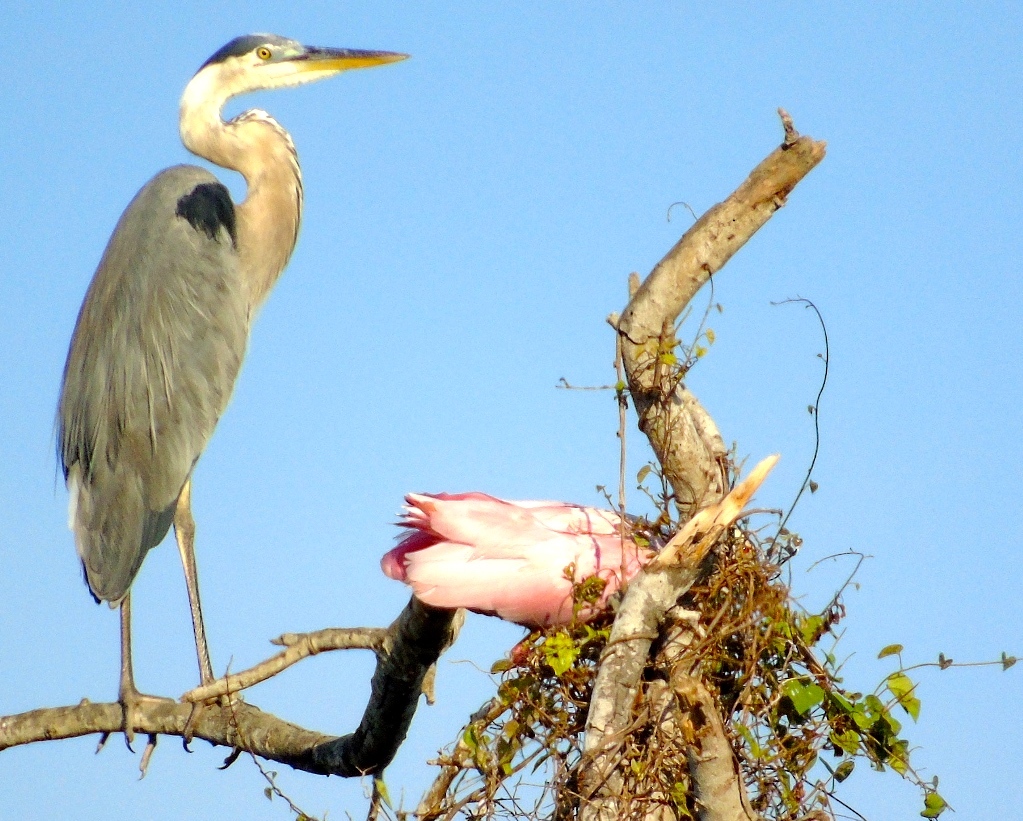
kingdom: Animalia
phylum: Chordata
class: Aves
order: Pelecaniformes
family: Ardeidae
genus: Ardea
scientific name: Ardea herodias
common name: Great blue heron
